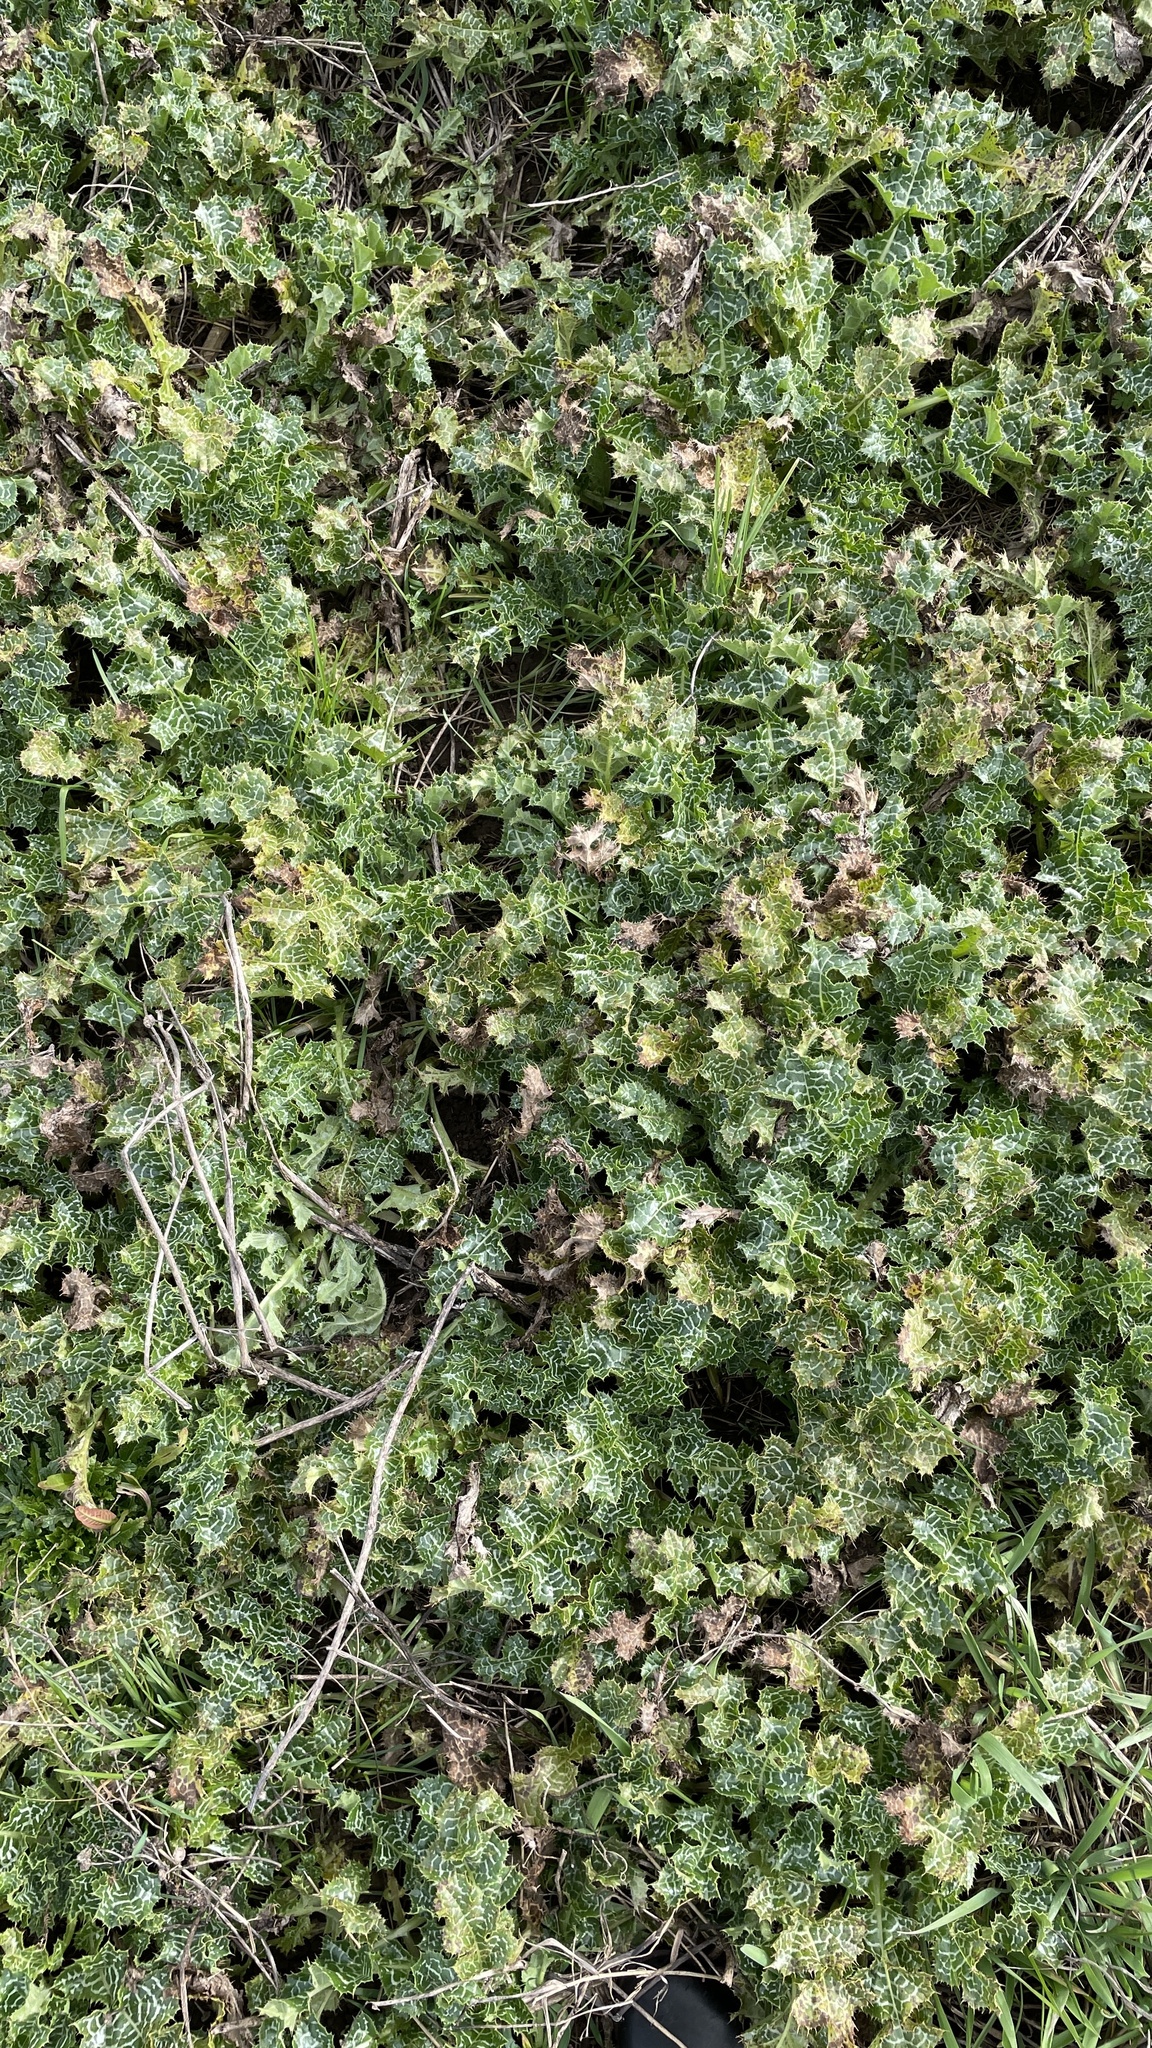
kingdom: Plantae
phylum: Tracheophyta
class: Magnoliopsida
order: Asterales
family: Asteraceae
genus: Silybum
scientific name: Silybum marianum
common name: Milk thistle
